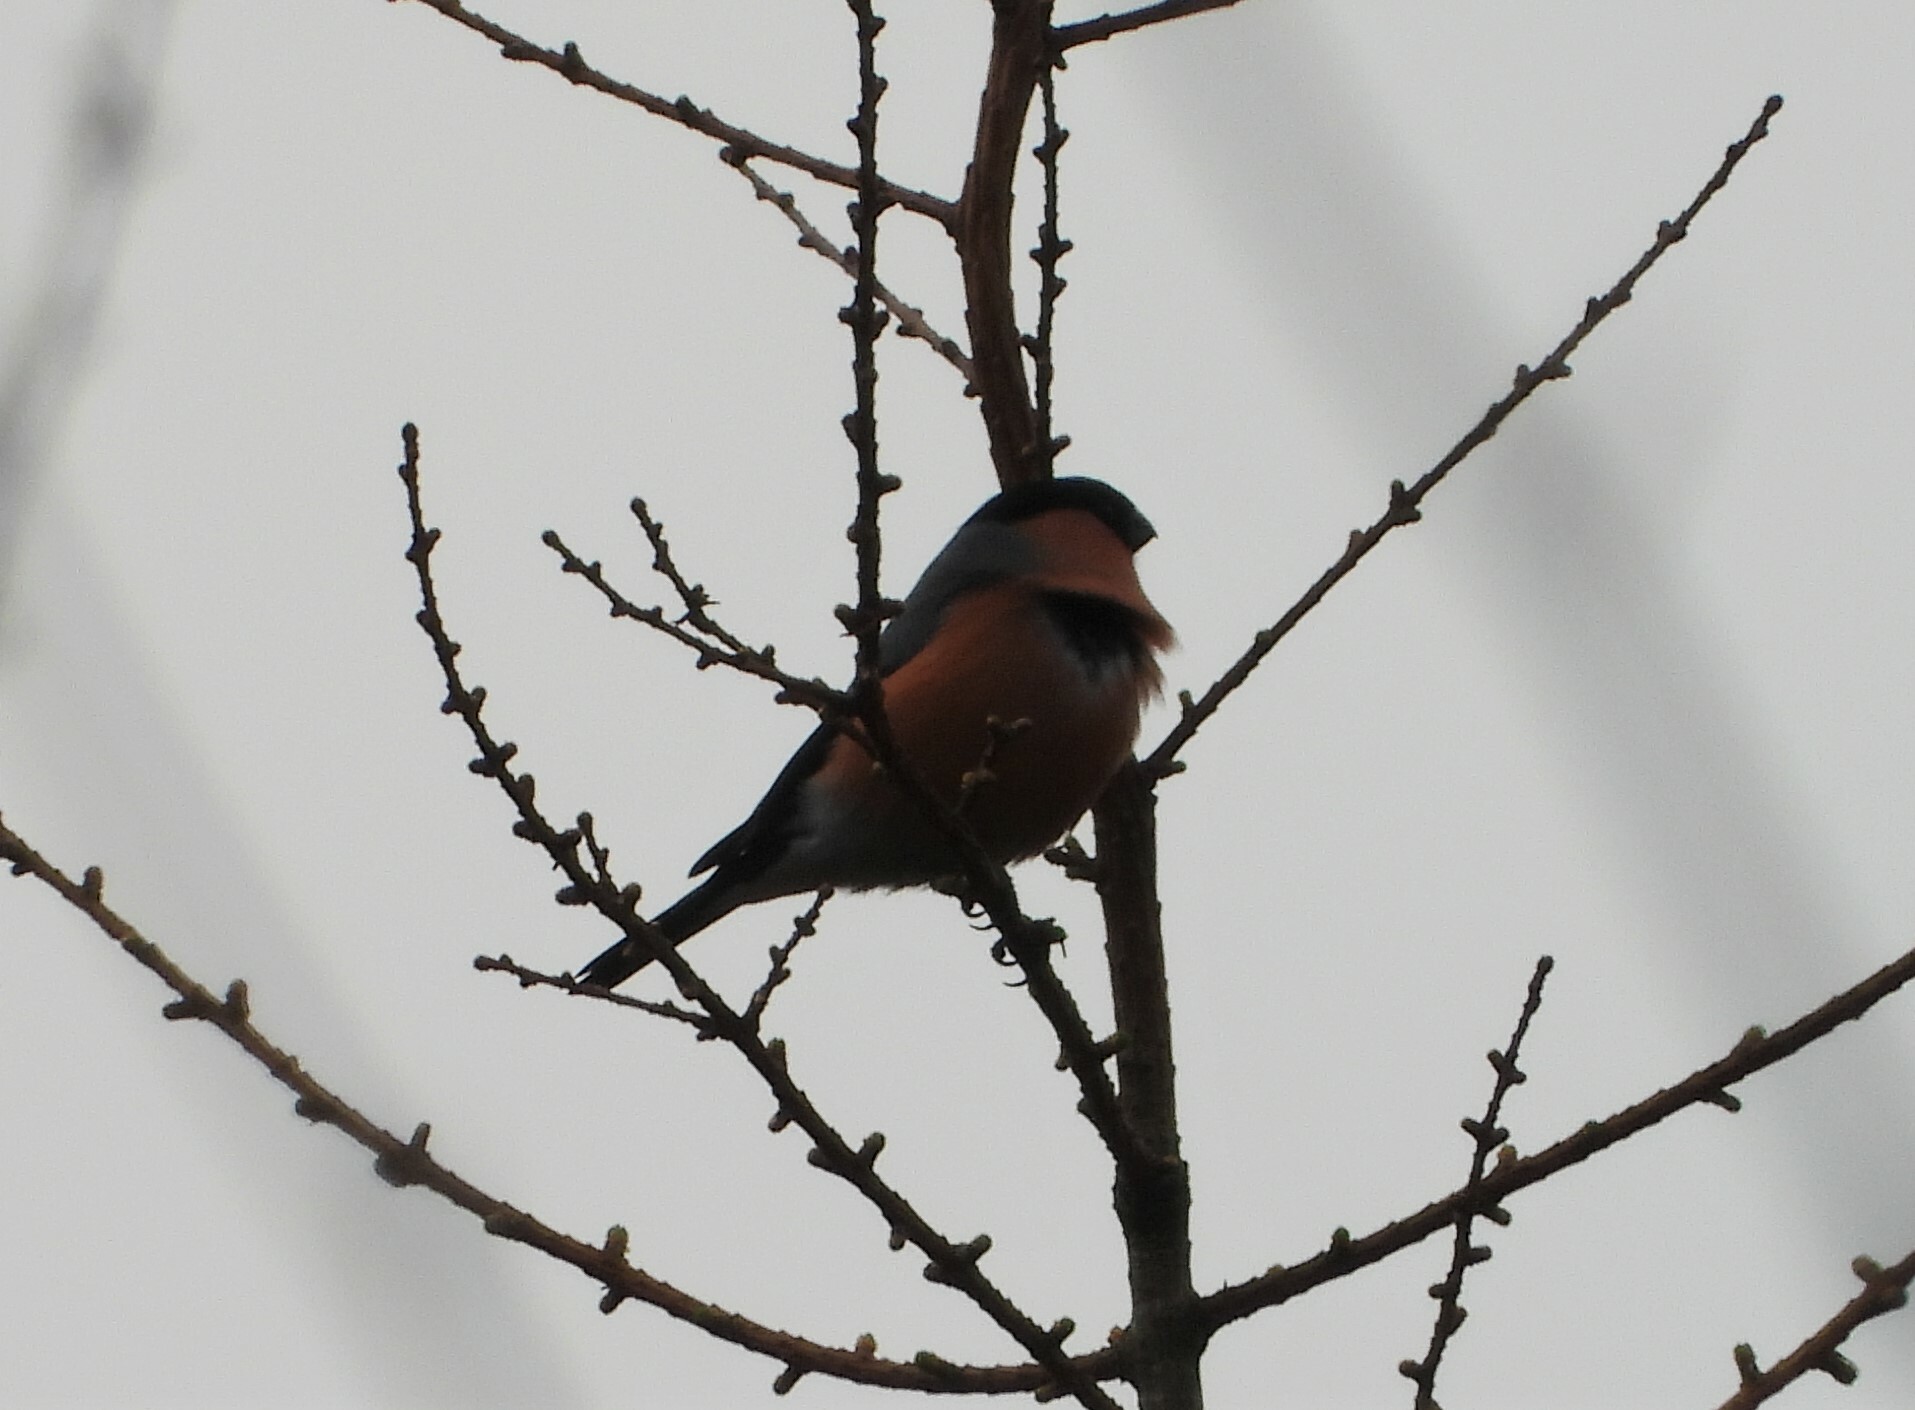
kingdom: Animalia
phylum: Chordata
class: Aves
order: Passeriformes
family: Fringillidae
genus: Pyrrhula
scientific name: Pyrrhula pyrrhula
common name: Eurasian bullfinch
